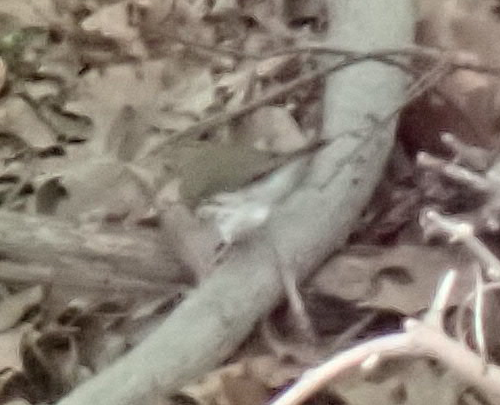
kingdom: Animalia
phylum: Chordata
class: Aves
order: Passeriformes
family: Parulidae
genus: Seiurus
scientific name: Seiurus aurocapilla
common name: Ovenbird
